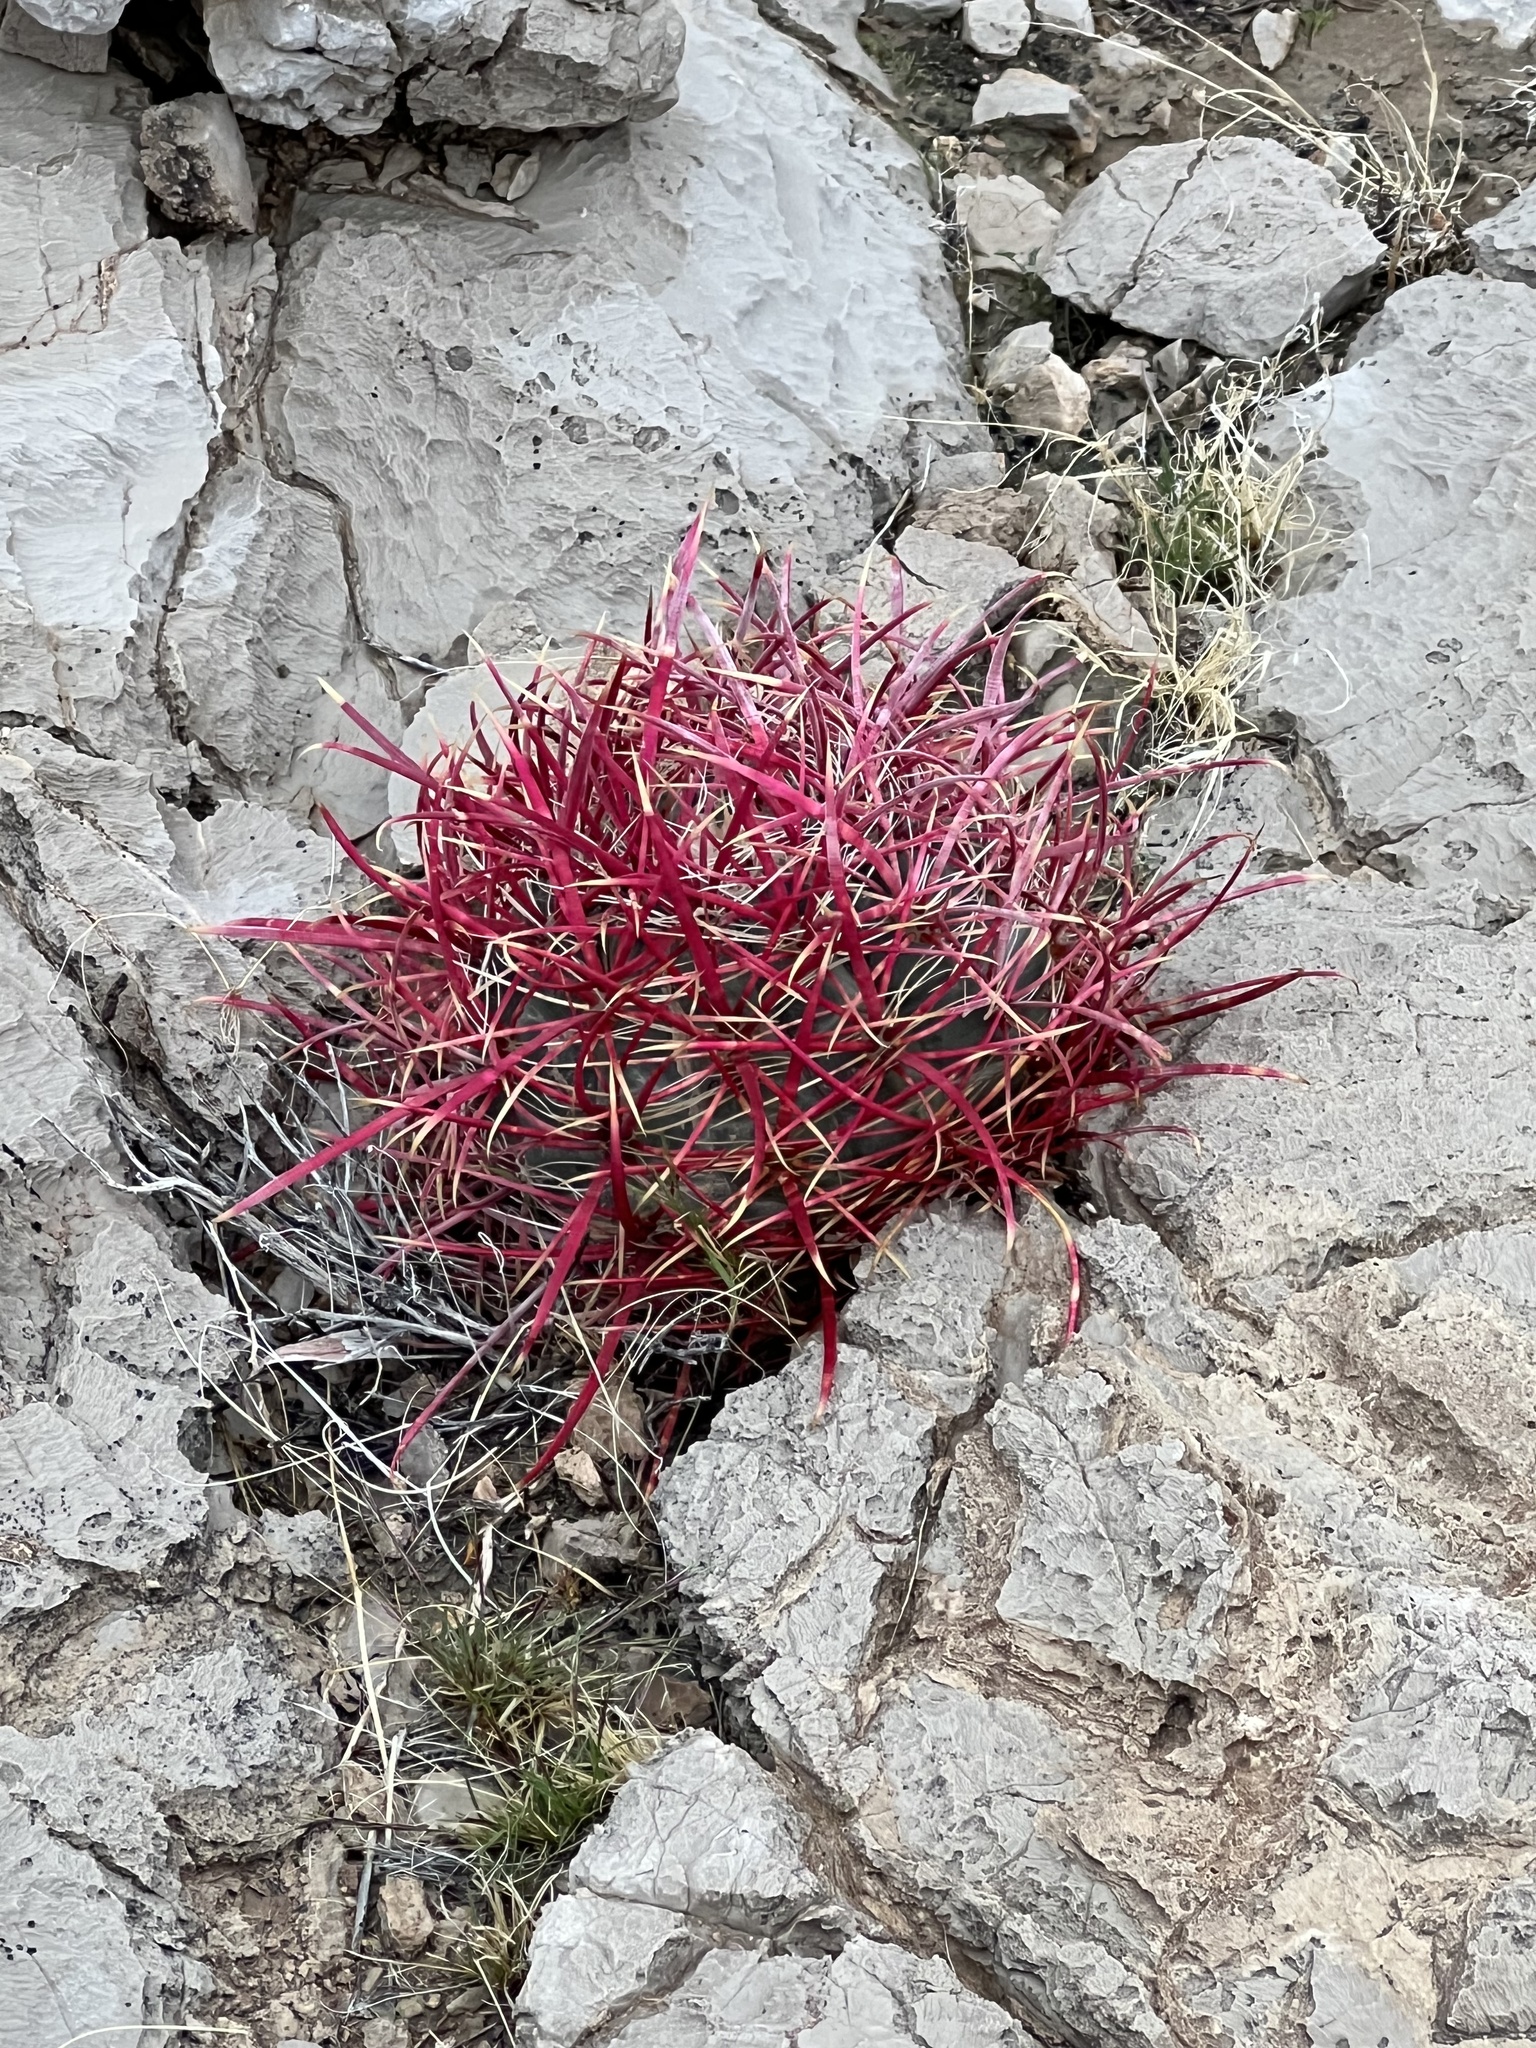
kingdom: Plantae
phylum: Tracheophyta
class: Magnoliopsida
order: Caryophyllales
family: Cactaceae
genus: Ferocactus
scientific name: Ferocactus cylindraceus
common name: California barrel cactus
